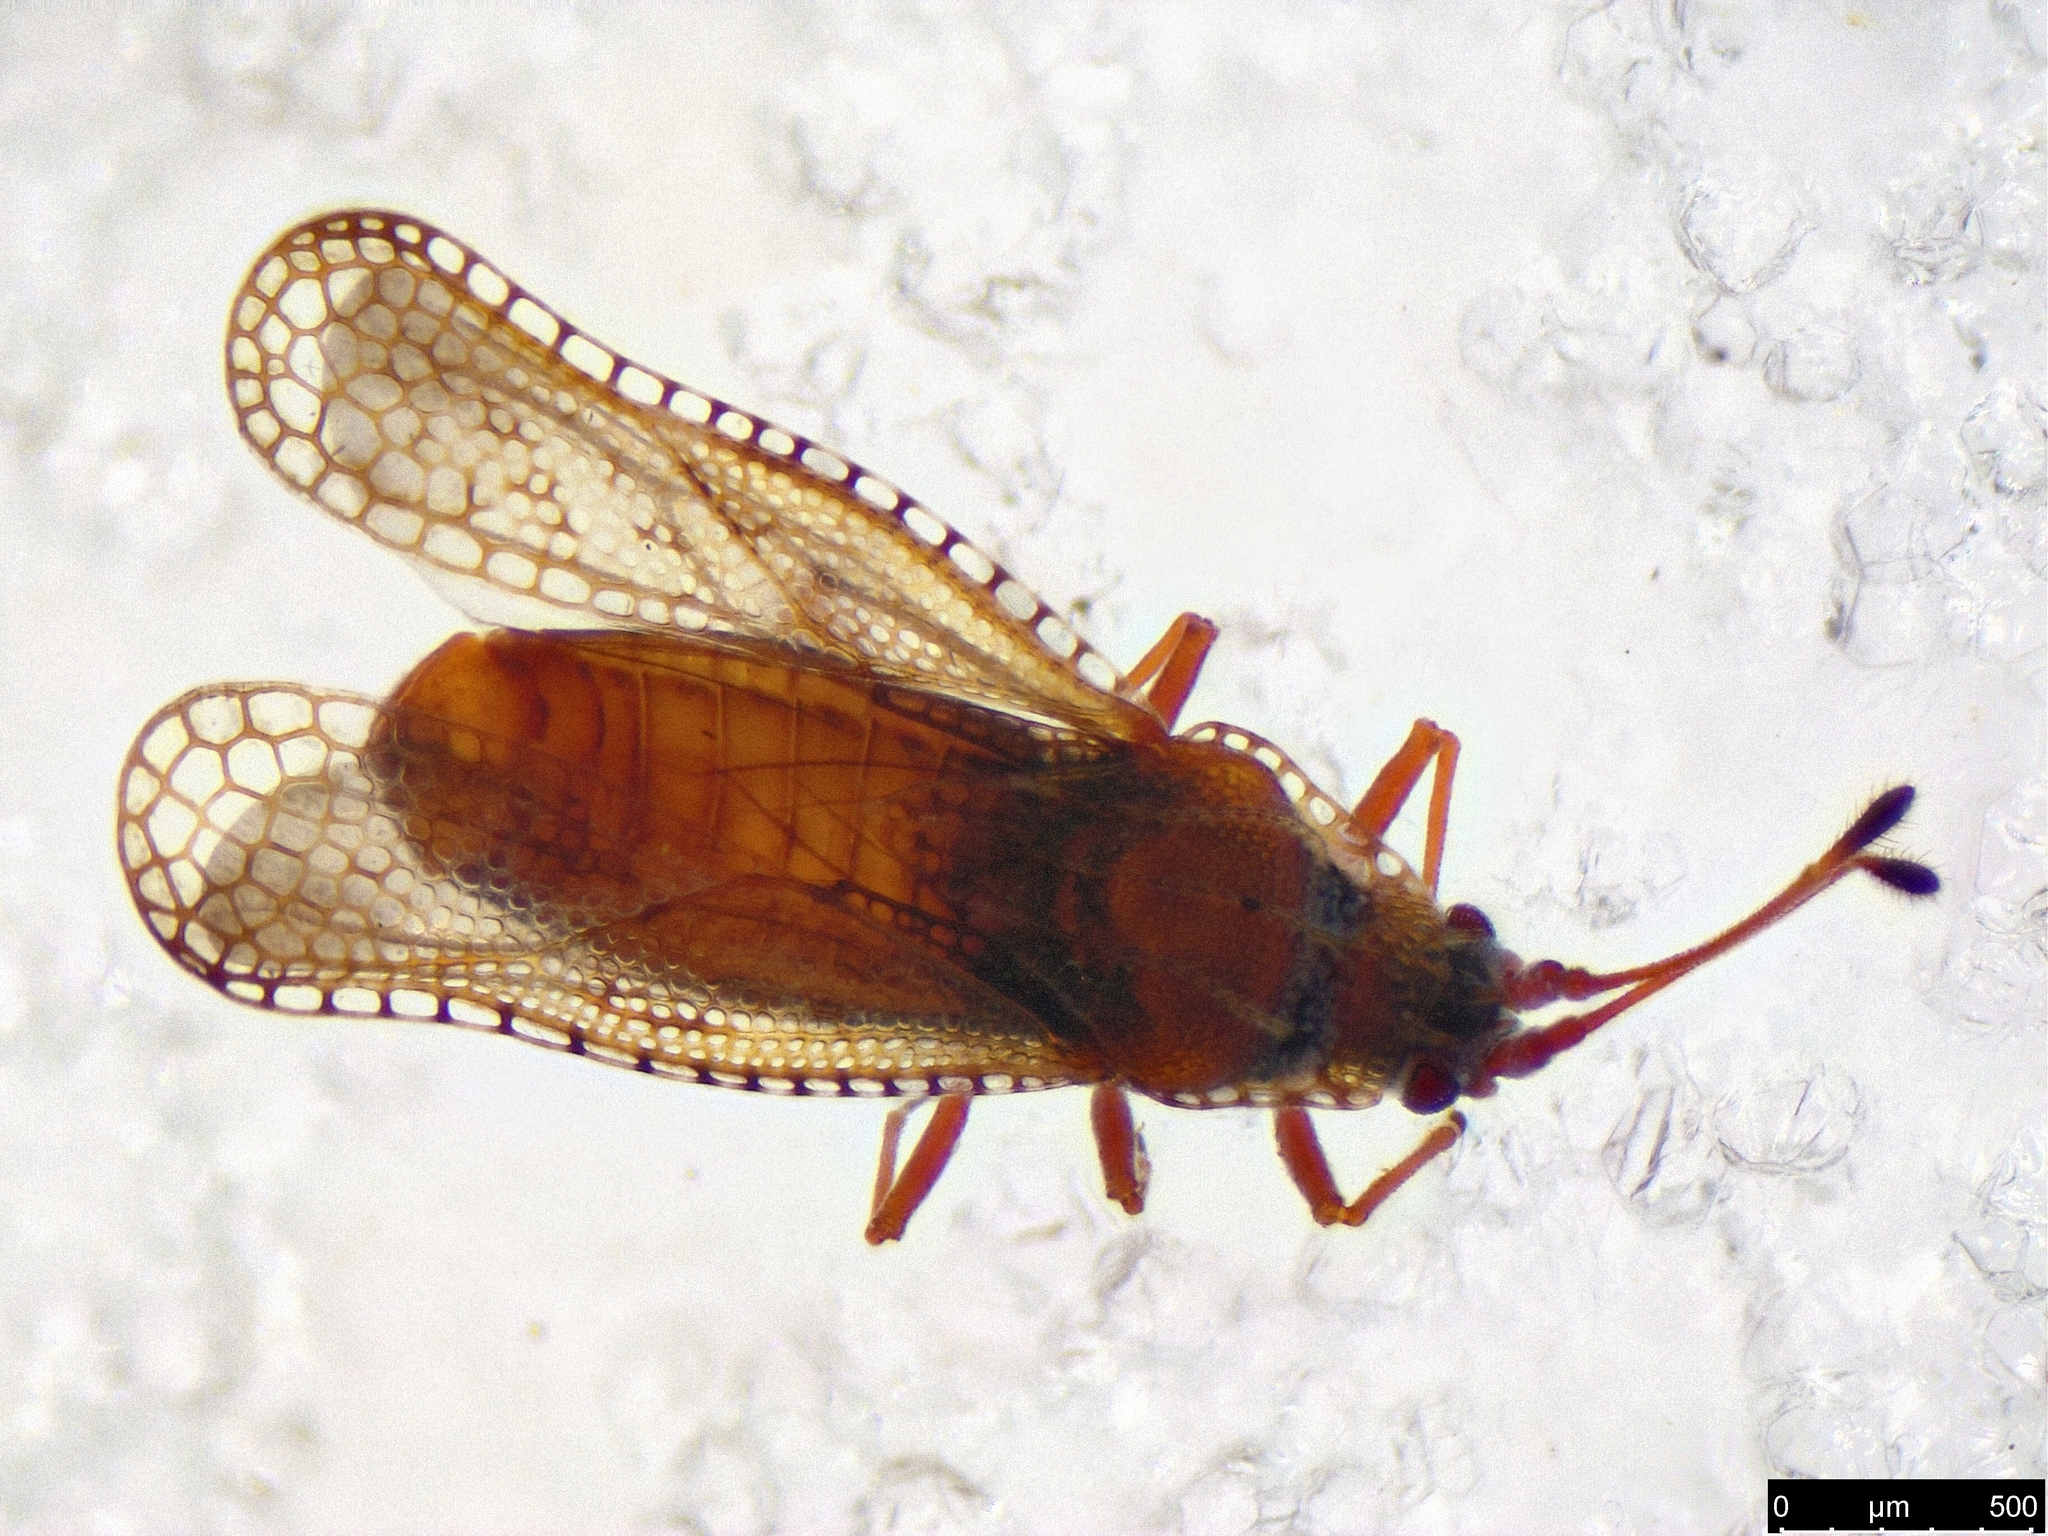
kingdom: Animalia
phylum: Arthropoda
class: Insecta
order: Hemiptera
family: Tingidae
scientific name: Tingidae
